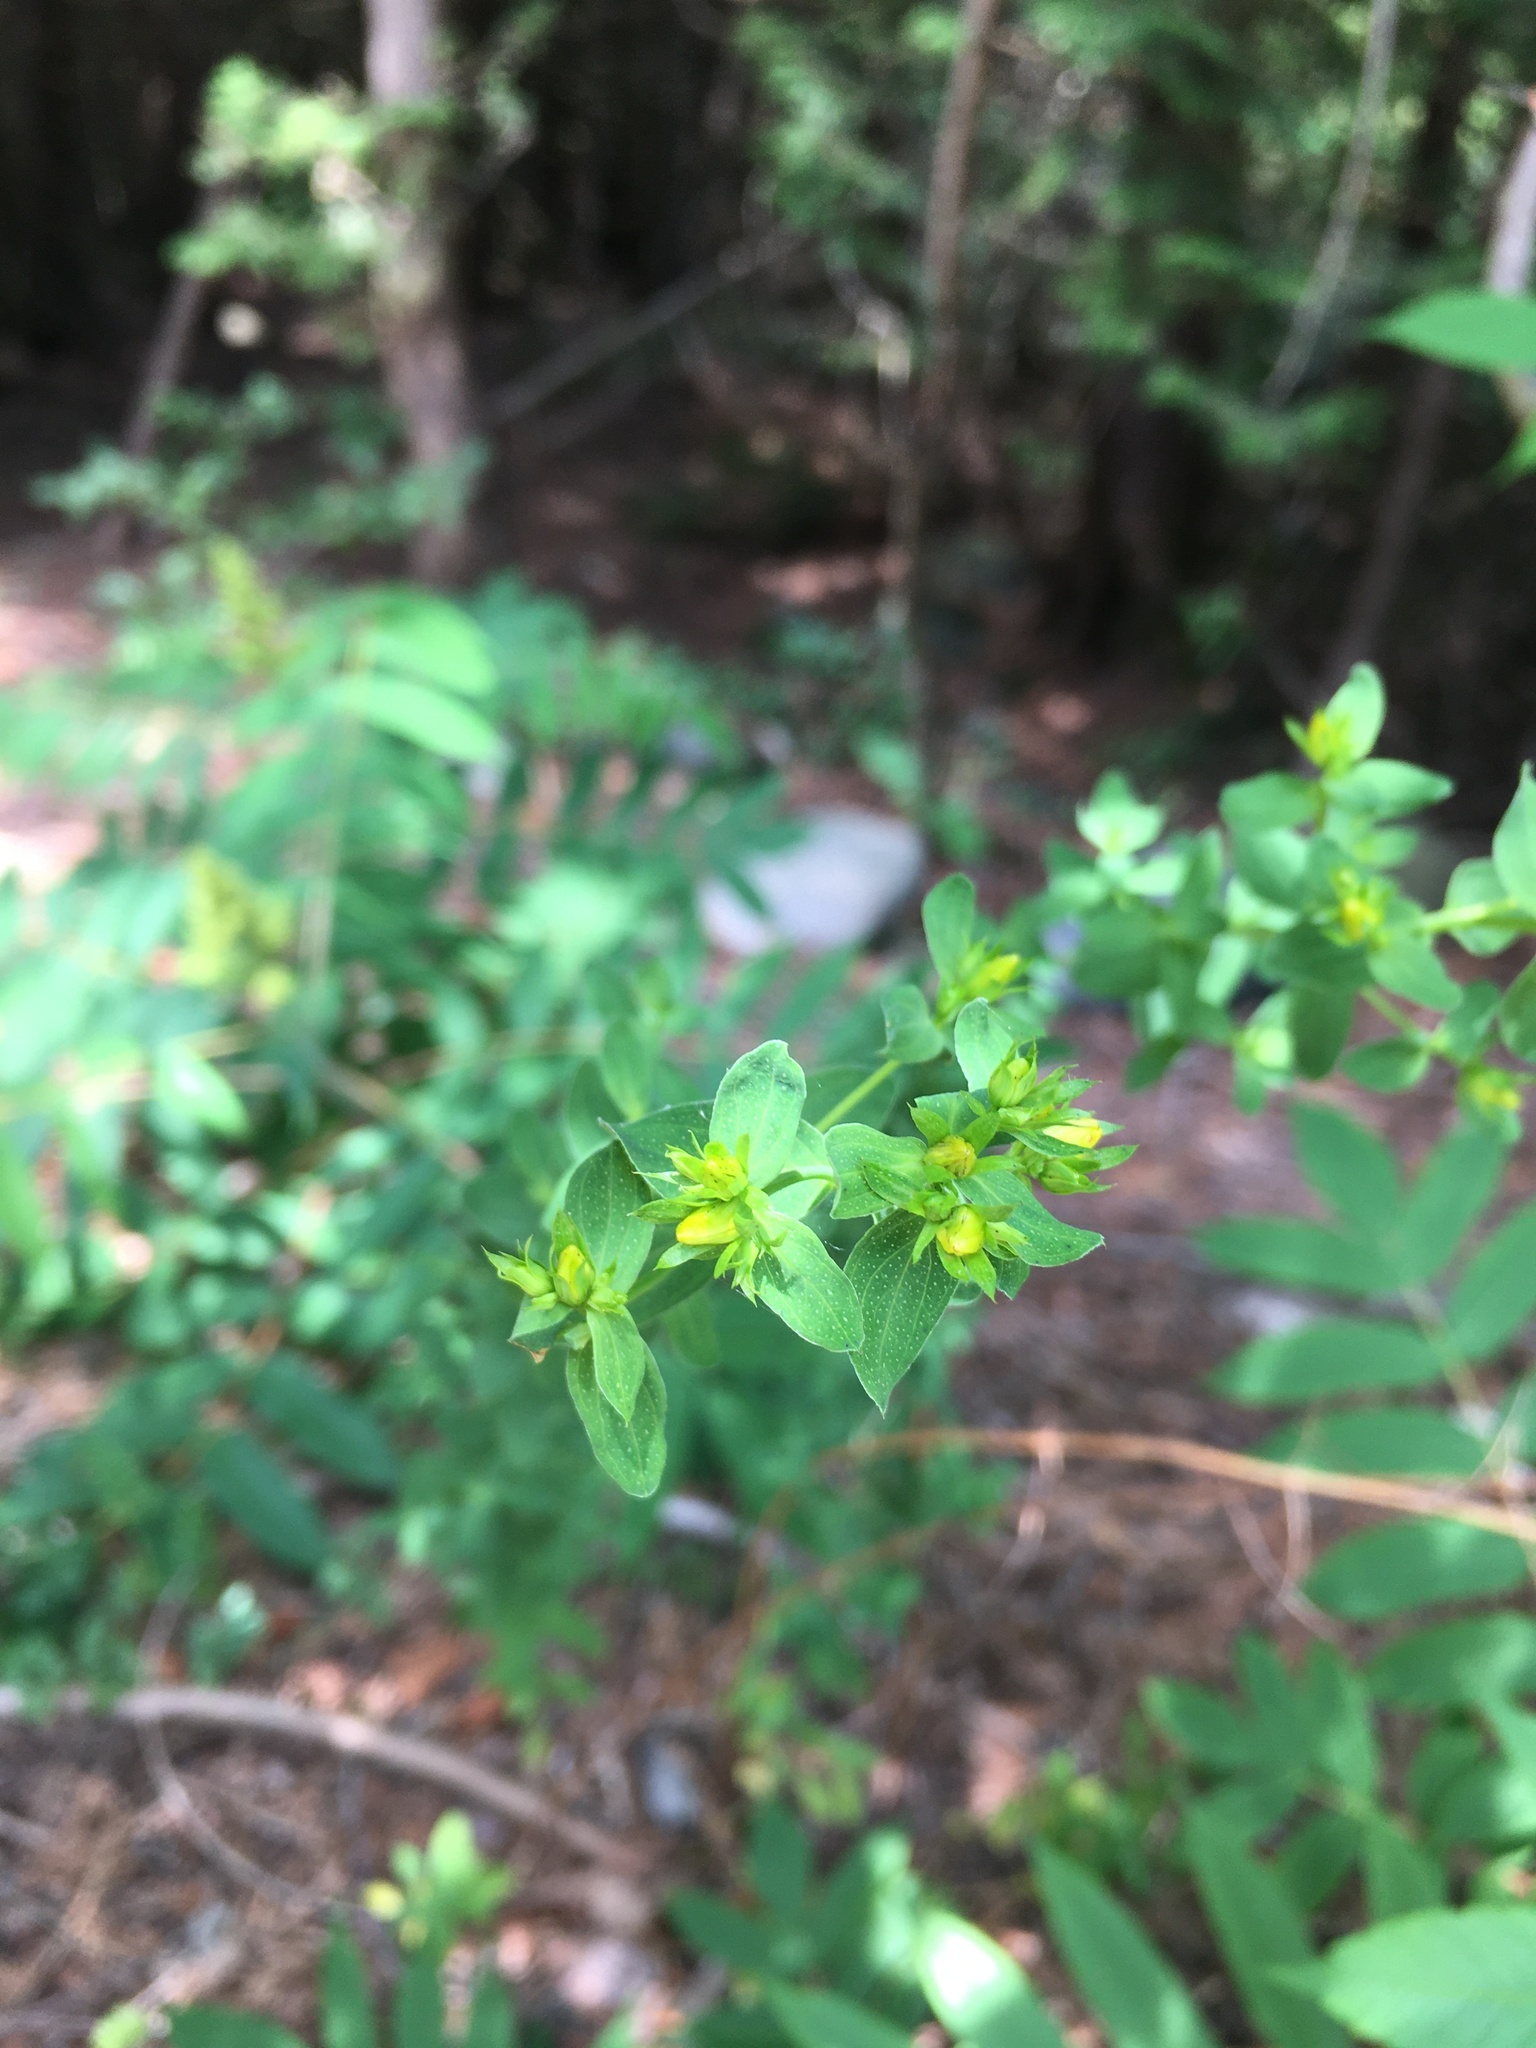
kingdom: Plantae
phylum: Tracheophyta
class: Magnoliopsida
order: Malpighiales
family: Hypericaceae
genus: Hypericum
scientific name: Hypericum perforatum
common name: Common st. johnswort
